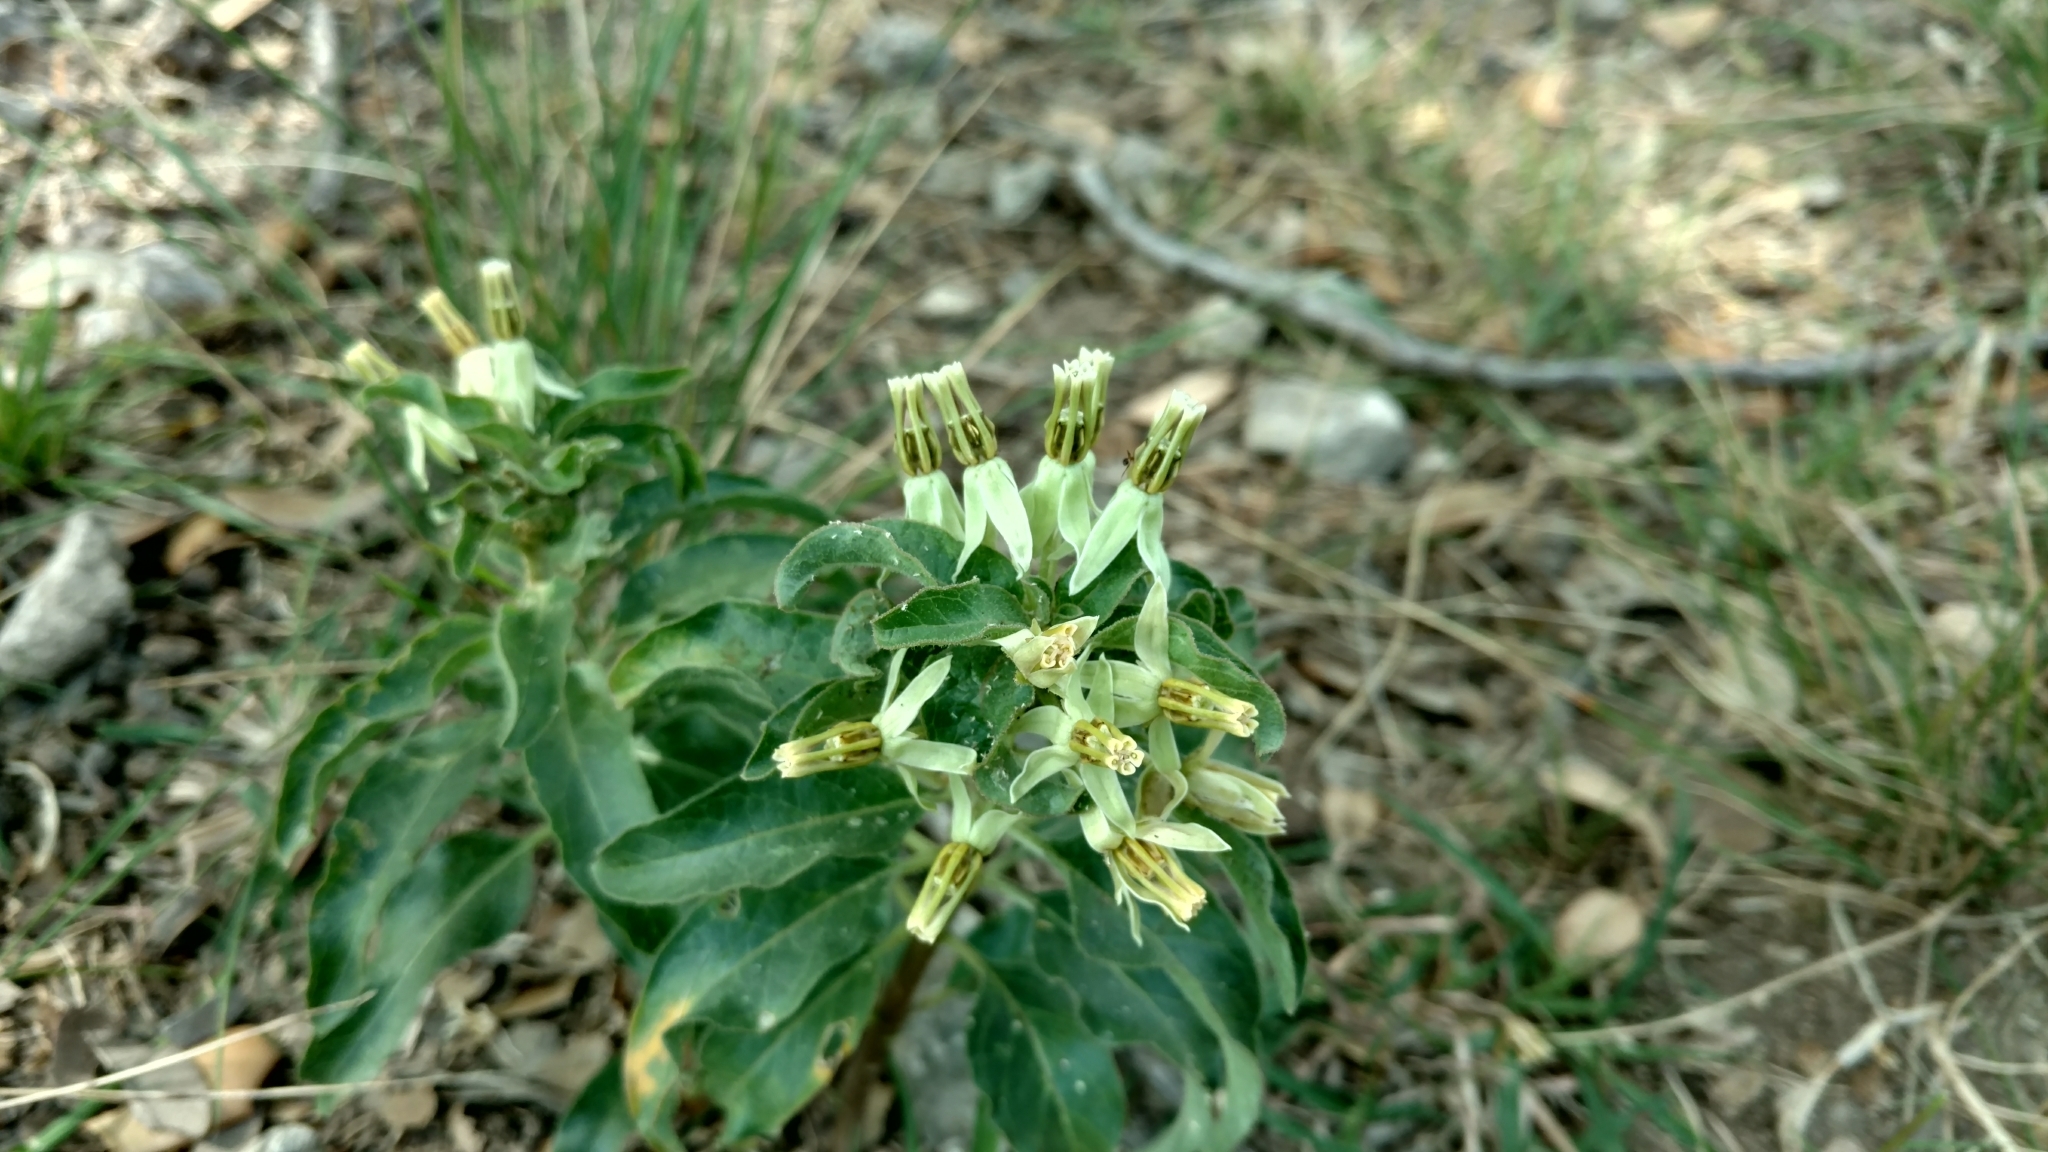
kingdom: Plantae
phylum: Tracheophyta
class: Magnoliopsida
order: Gentianales
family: Apocynaceae
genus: Asclepias
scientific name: Asclepias oenotheroides
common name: Zizotes milkweed
